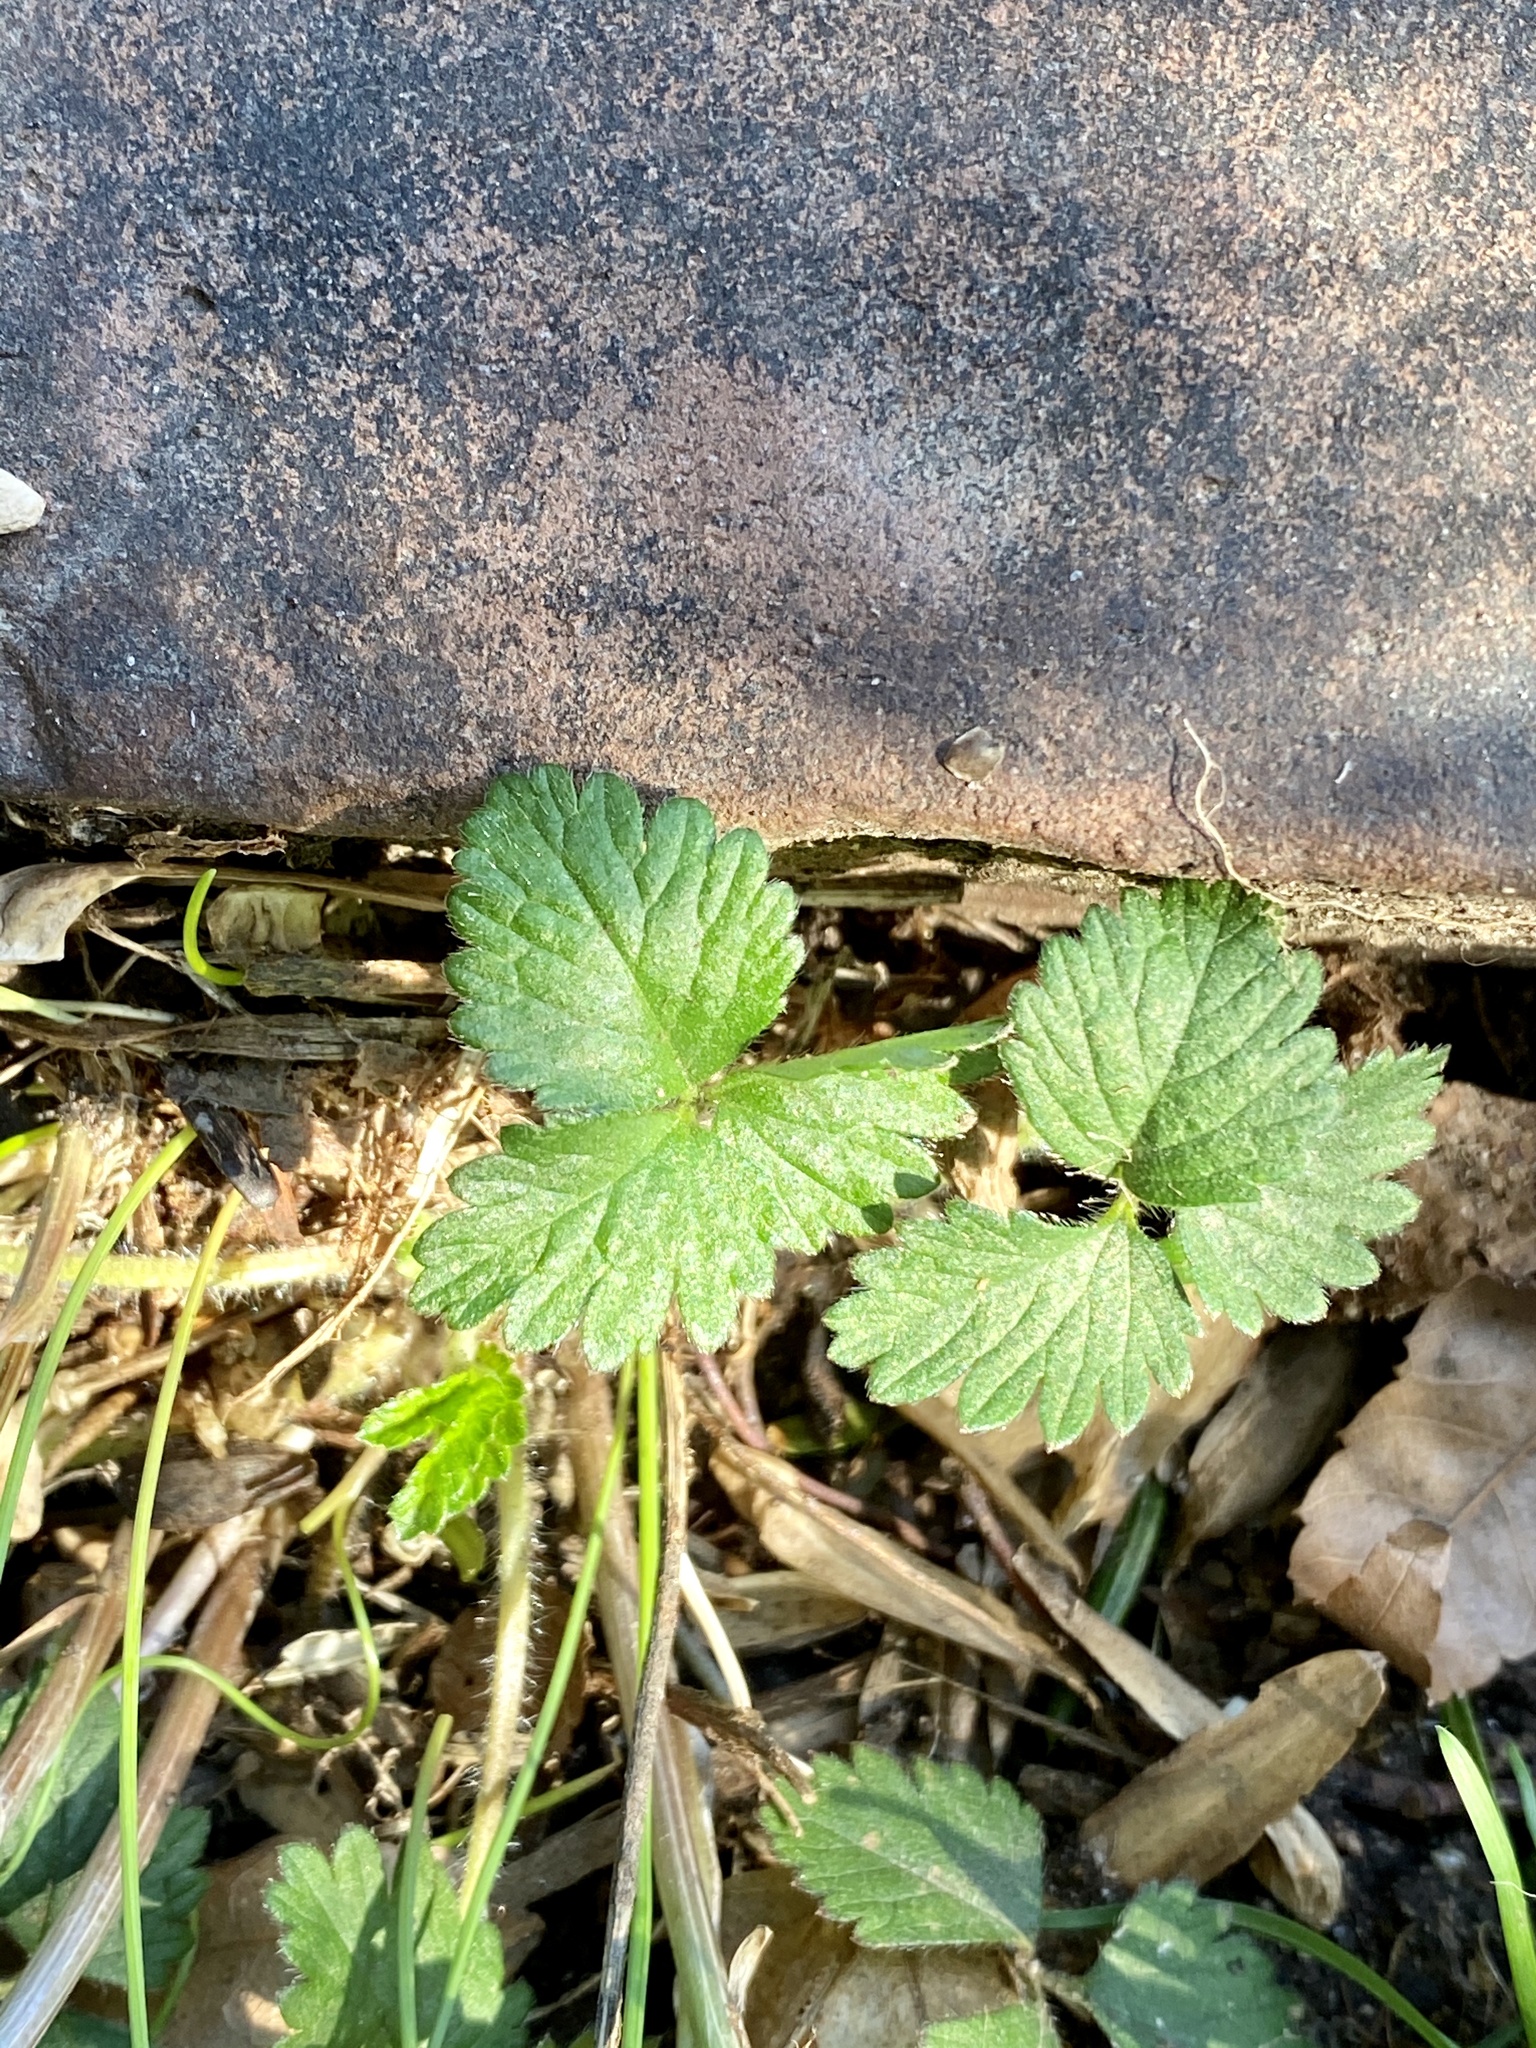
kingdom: Plantae
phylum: Tracheophyta
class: Magnoliopsida
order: Rosales
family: Rosaceae
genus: Potentilla
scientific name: Potentilla indica
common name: Yellow-flowered strawberry
